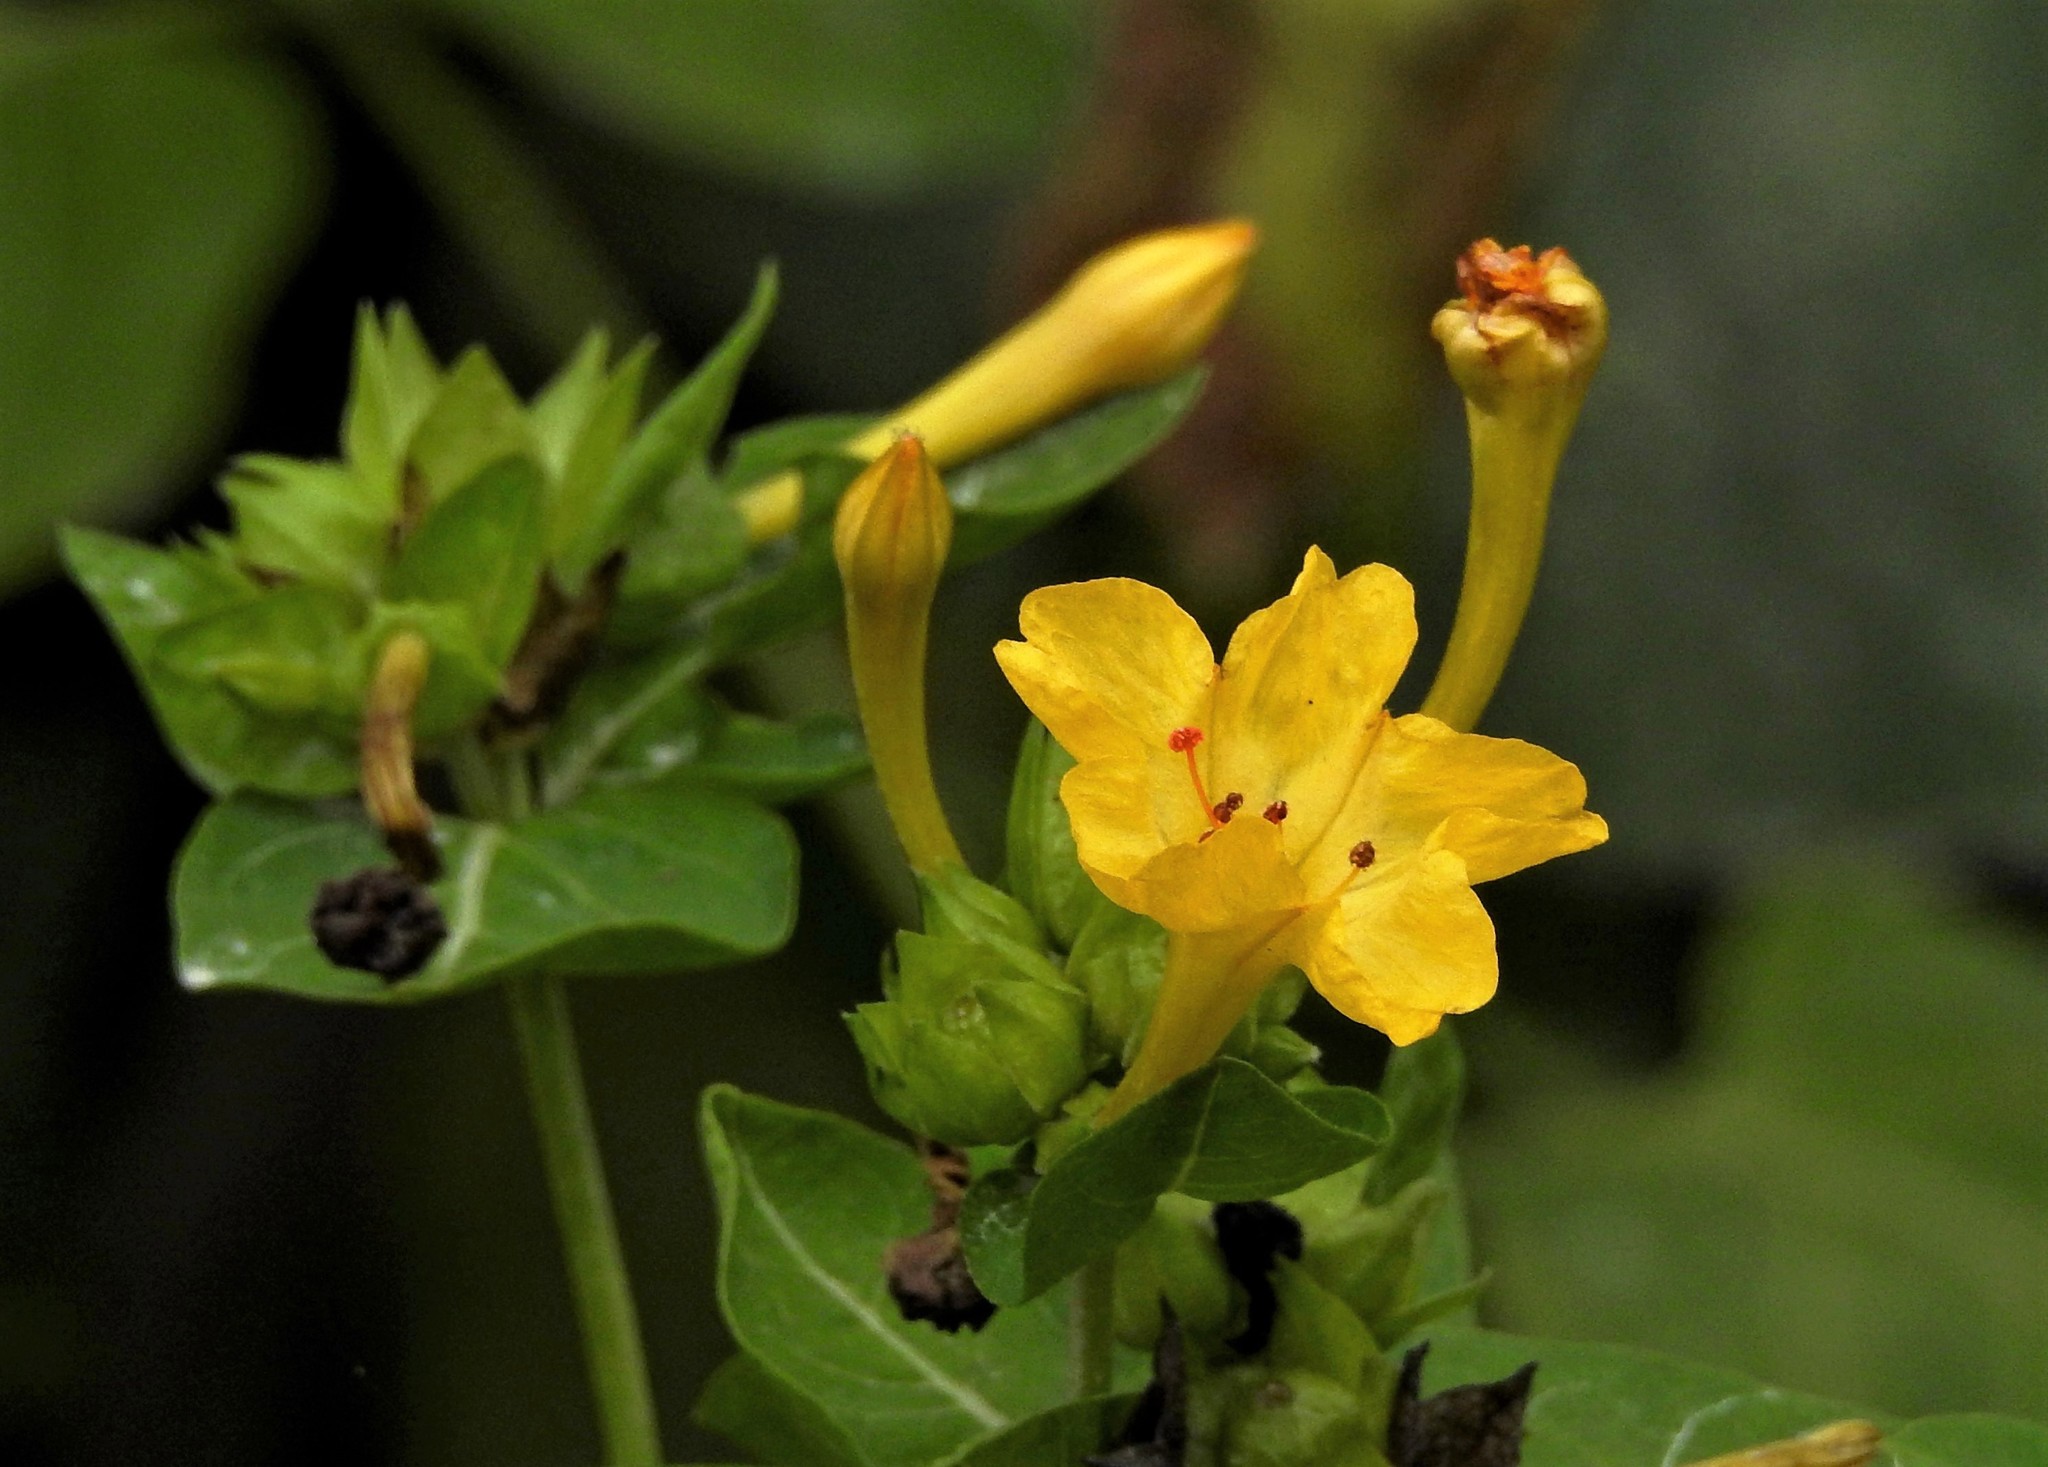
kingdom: Plantae
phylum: Tracheophyta
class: Magnoliopsida
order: Caryophyllales
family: Nyctaginaceae
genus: Mirabilis
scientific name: Mirabilis jalapa
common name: Marvel-of-peru
